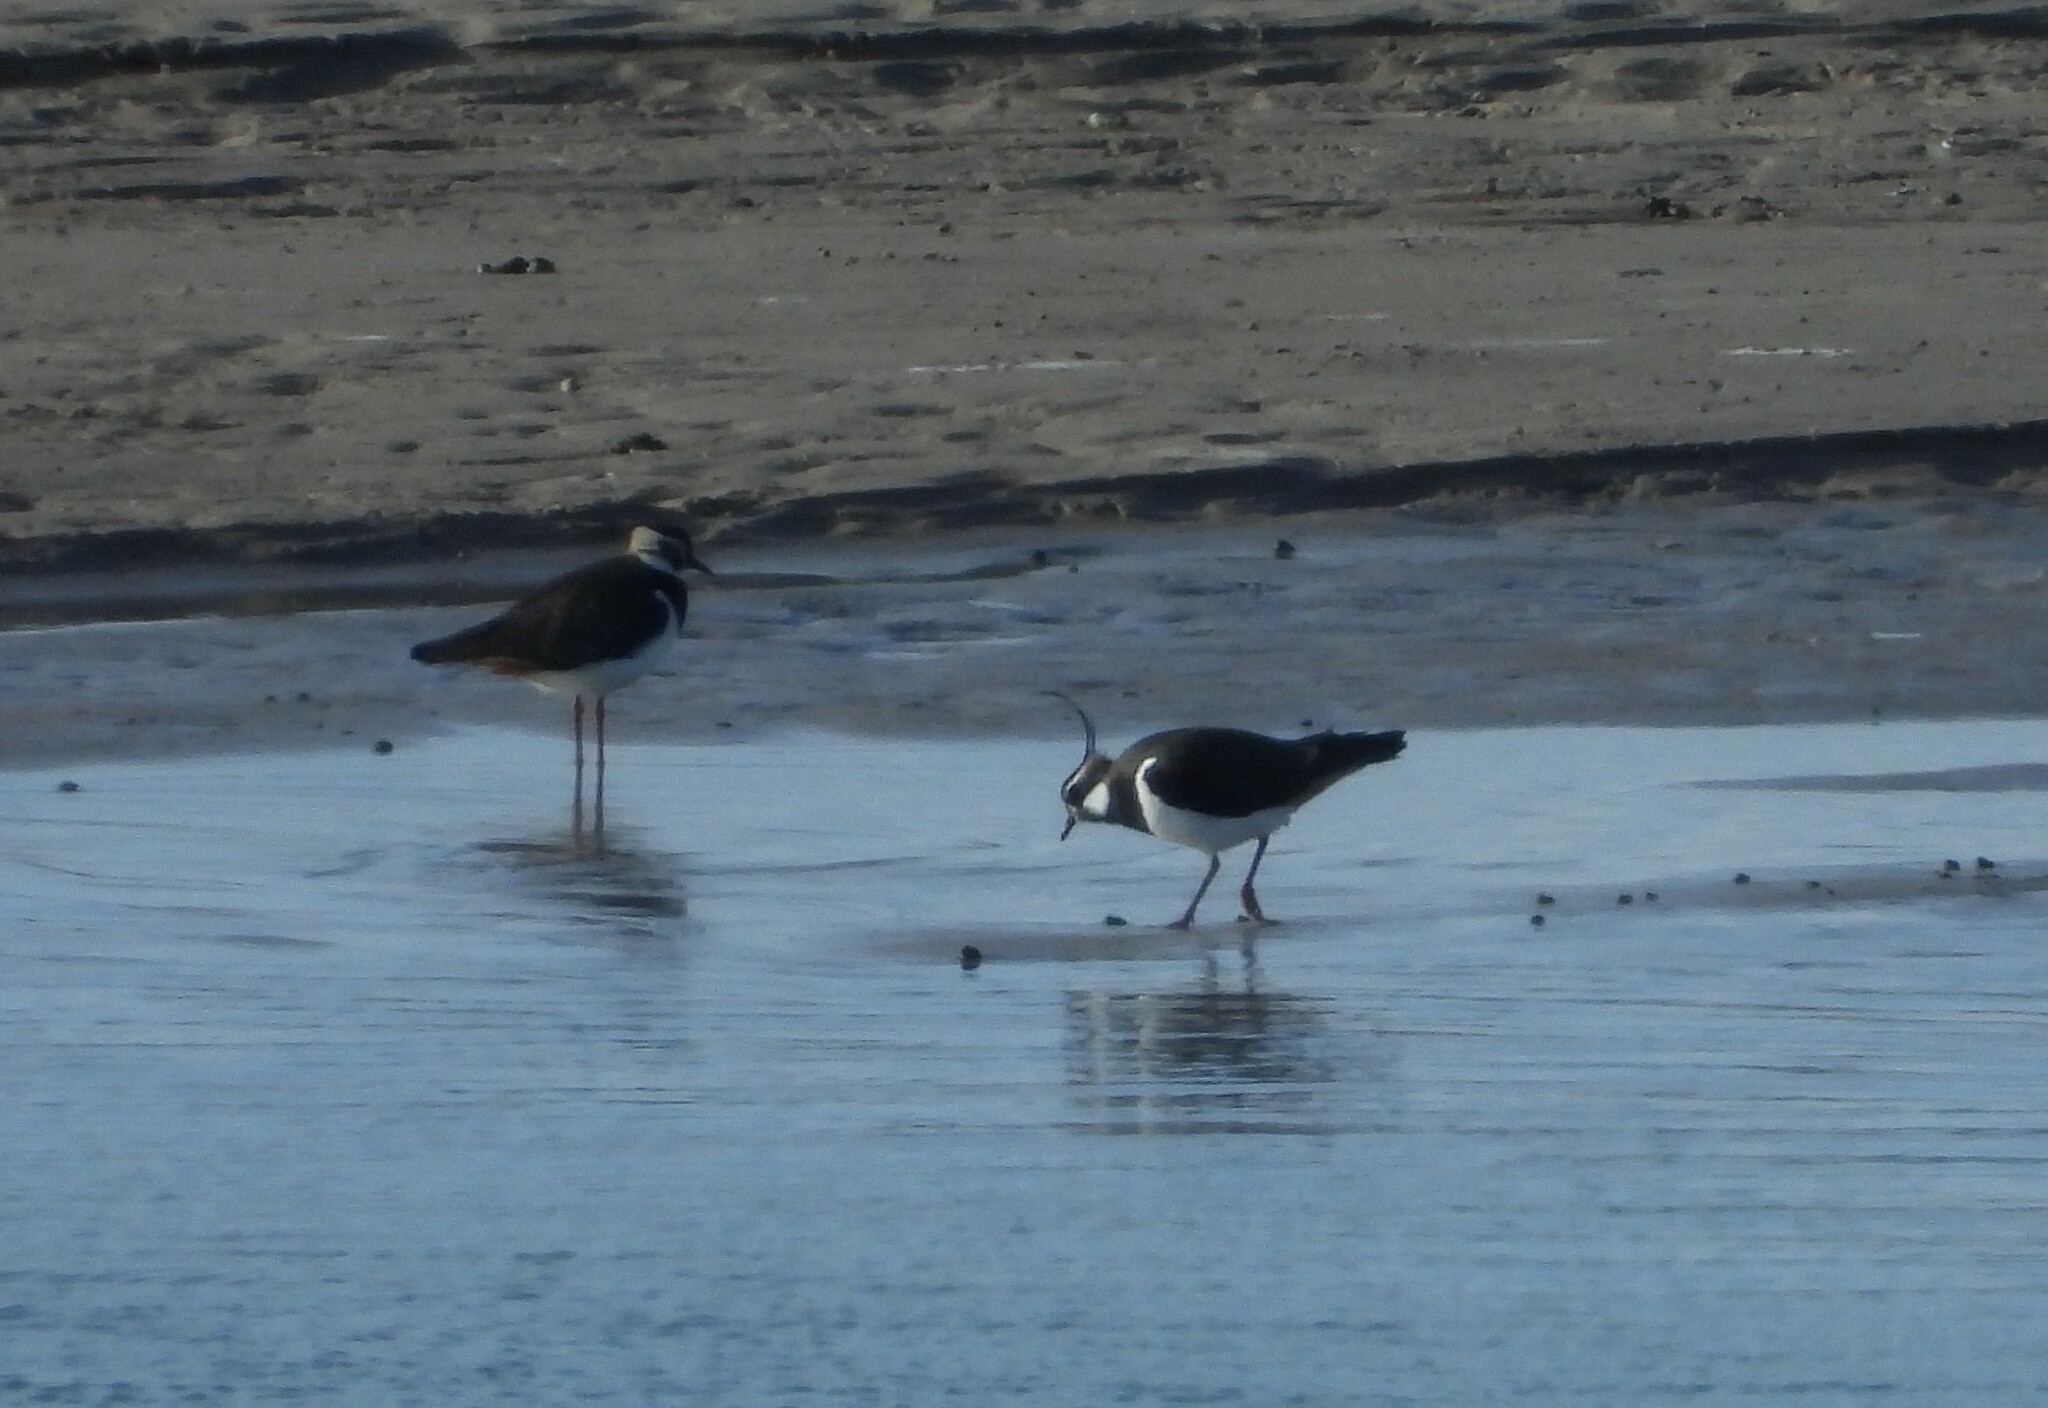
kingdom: Animalia
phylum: Chordata
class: Aves
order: Charadriiformes
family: Charadriidae
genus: Vanellus
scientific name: Vanellus vanellus
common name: Northern lapwing
